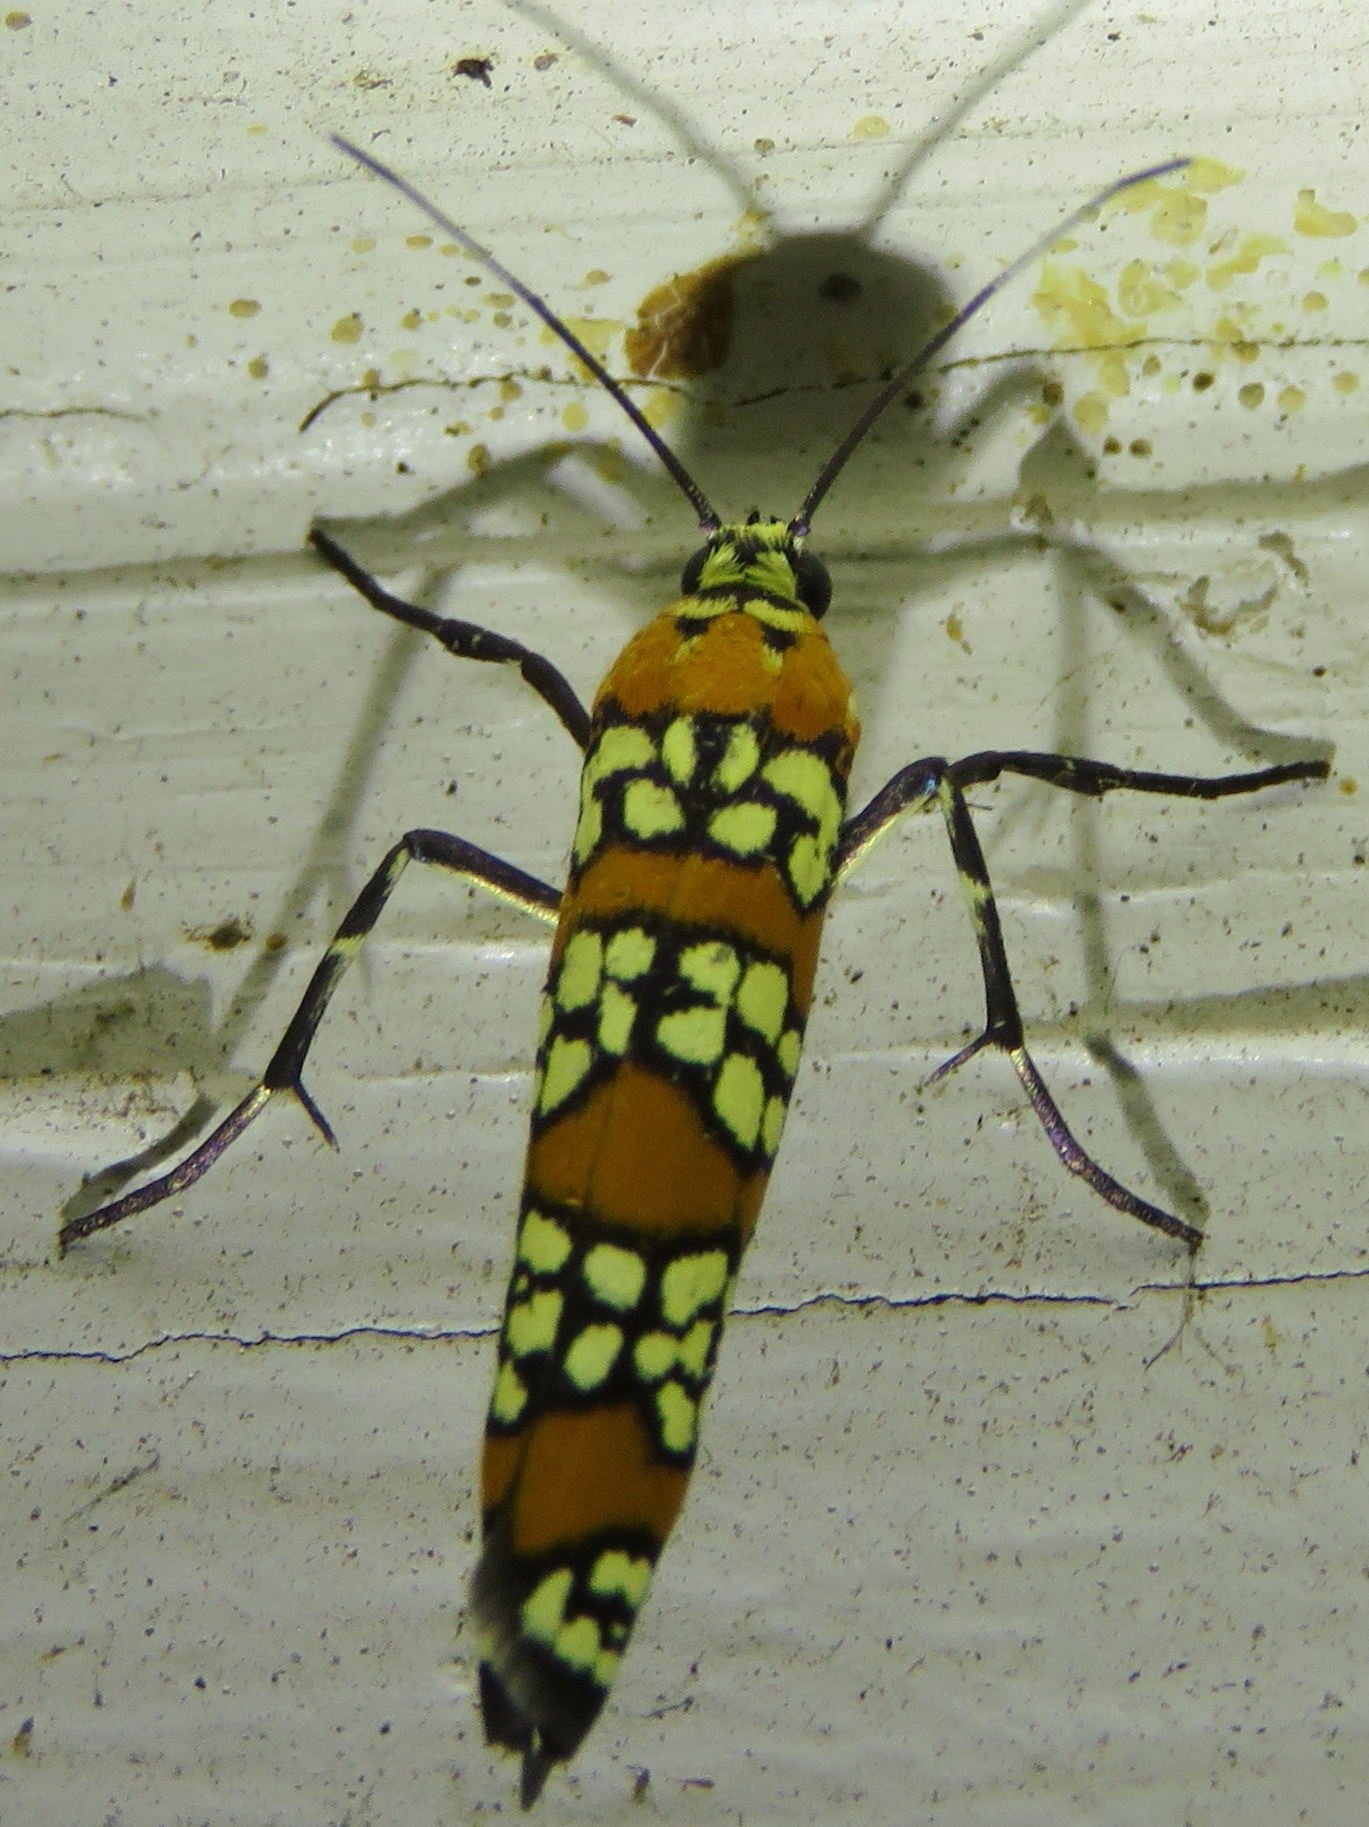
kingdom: Animalia
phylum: Arthropoda
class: Insecta
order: Lepidoptera
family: Attevidae
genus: Atteva
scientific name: Atteva punctella
